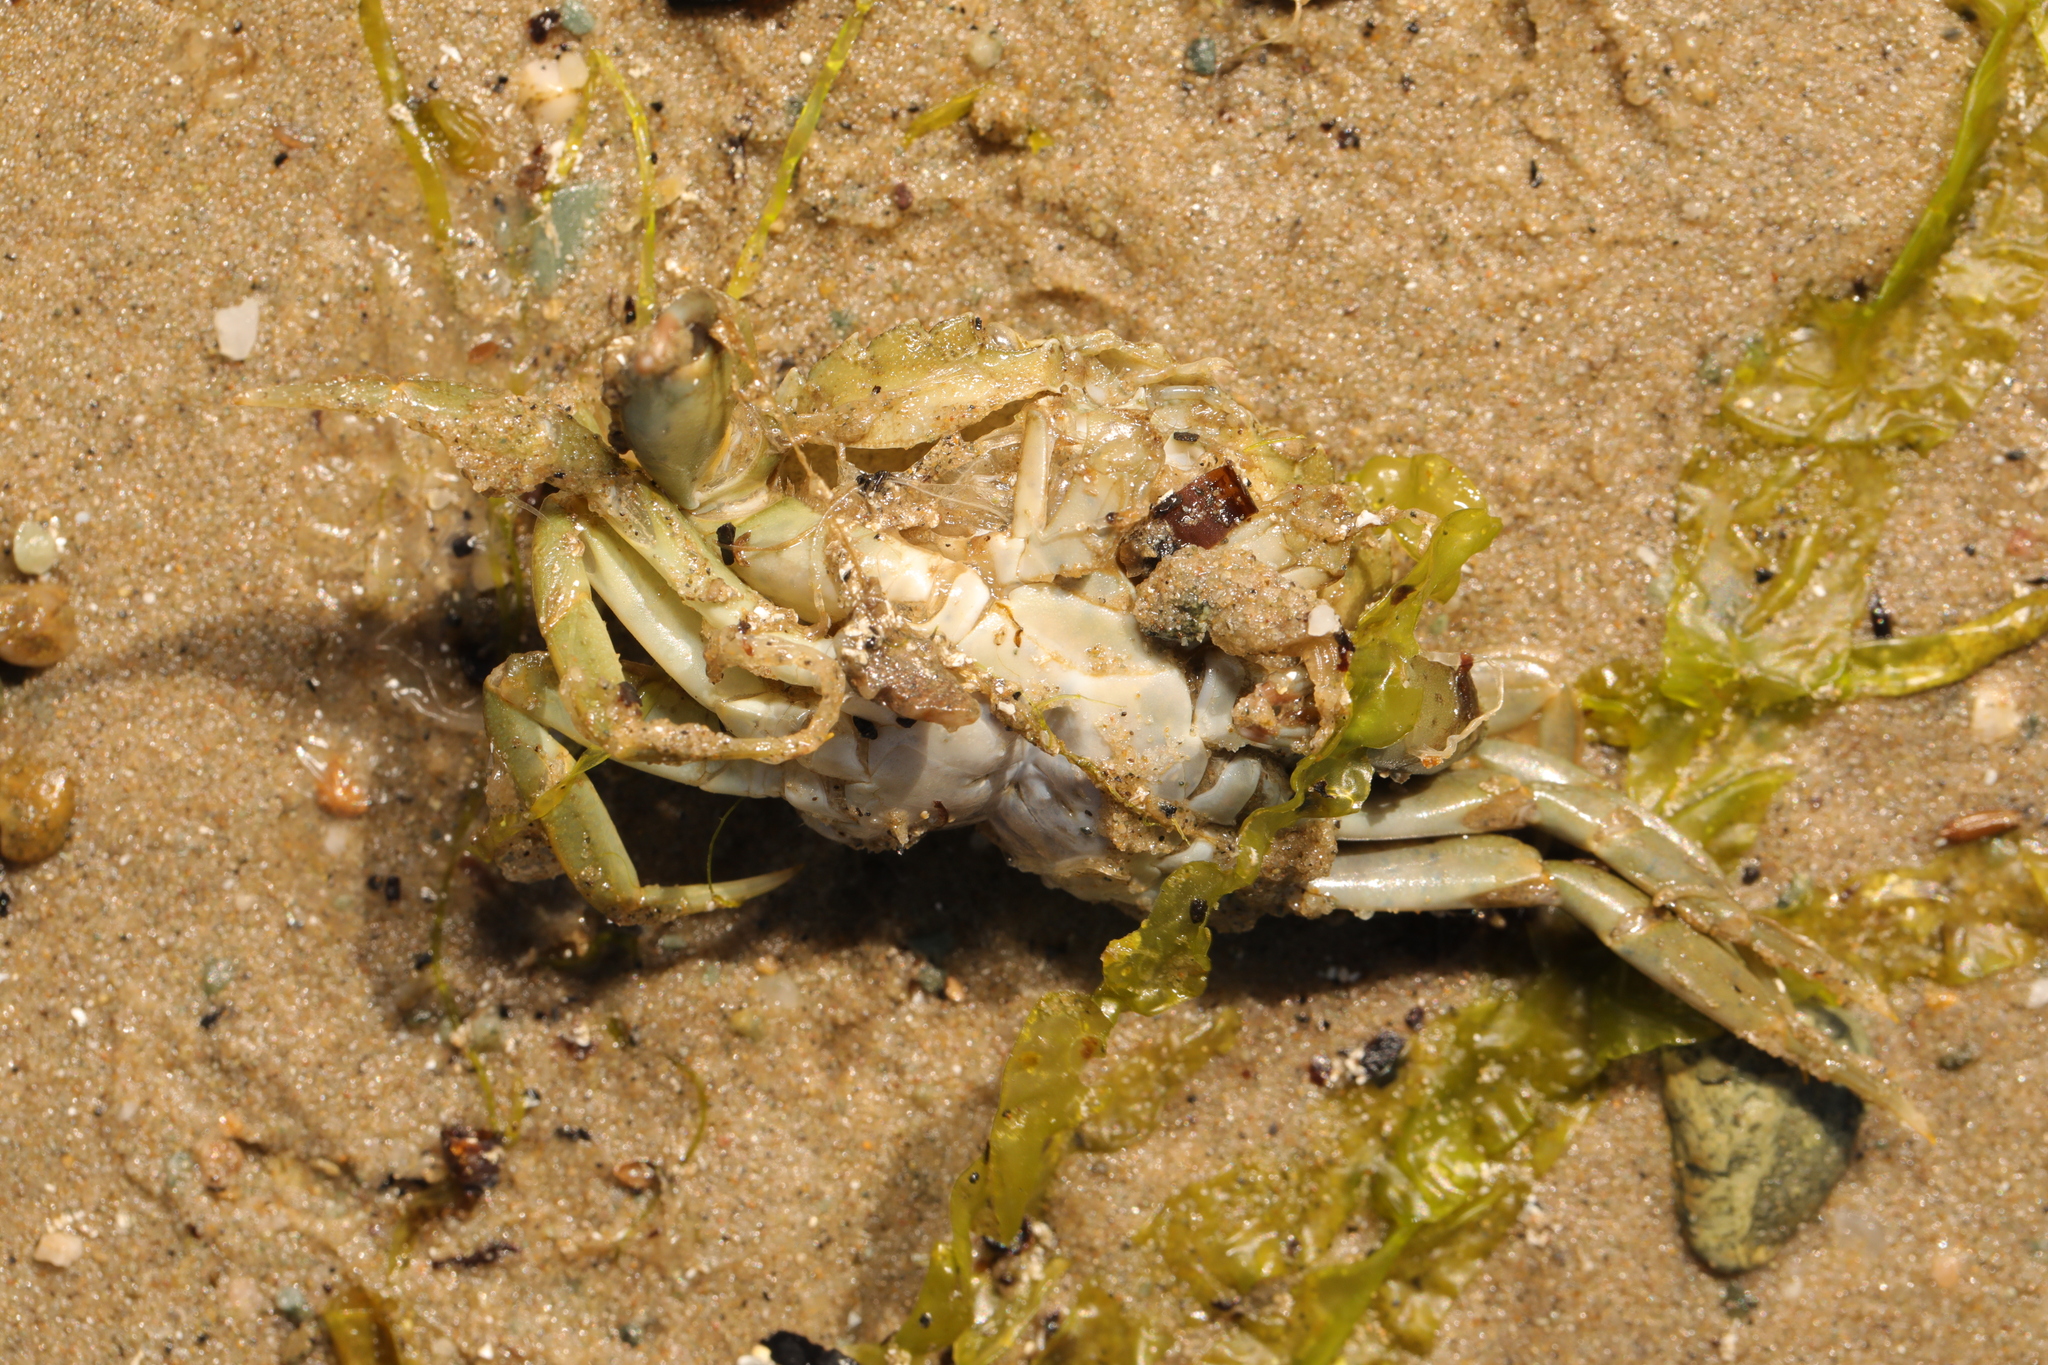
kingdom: Animalia
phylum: Arthropoda
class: Malacostraca
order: Decapoda
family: Carcinidae
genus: Carcinus
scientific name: Carcinus maenas
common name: European green crab
